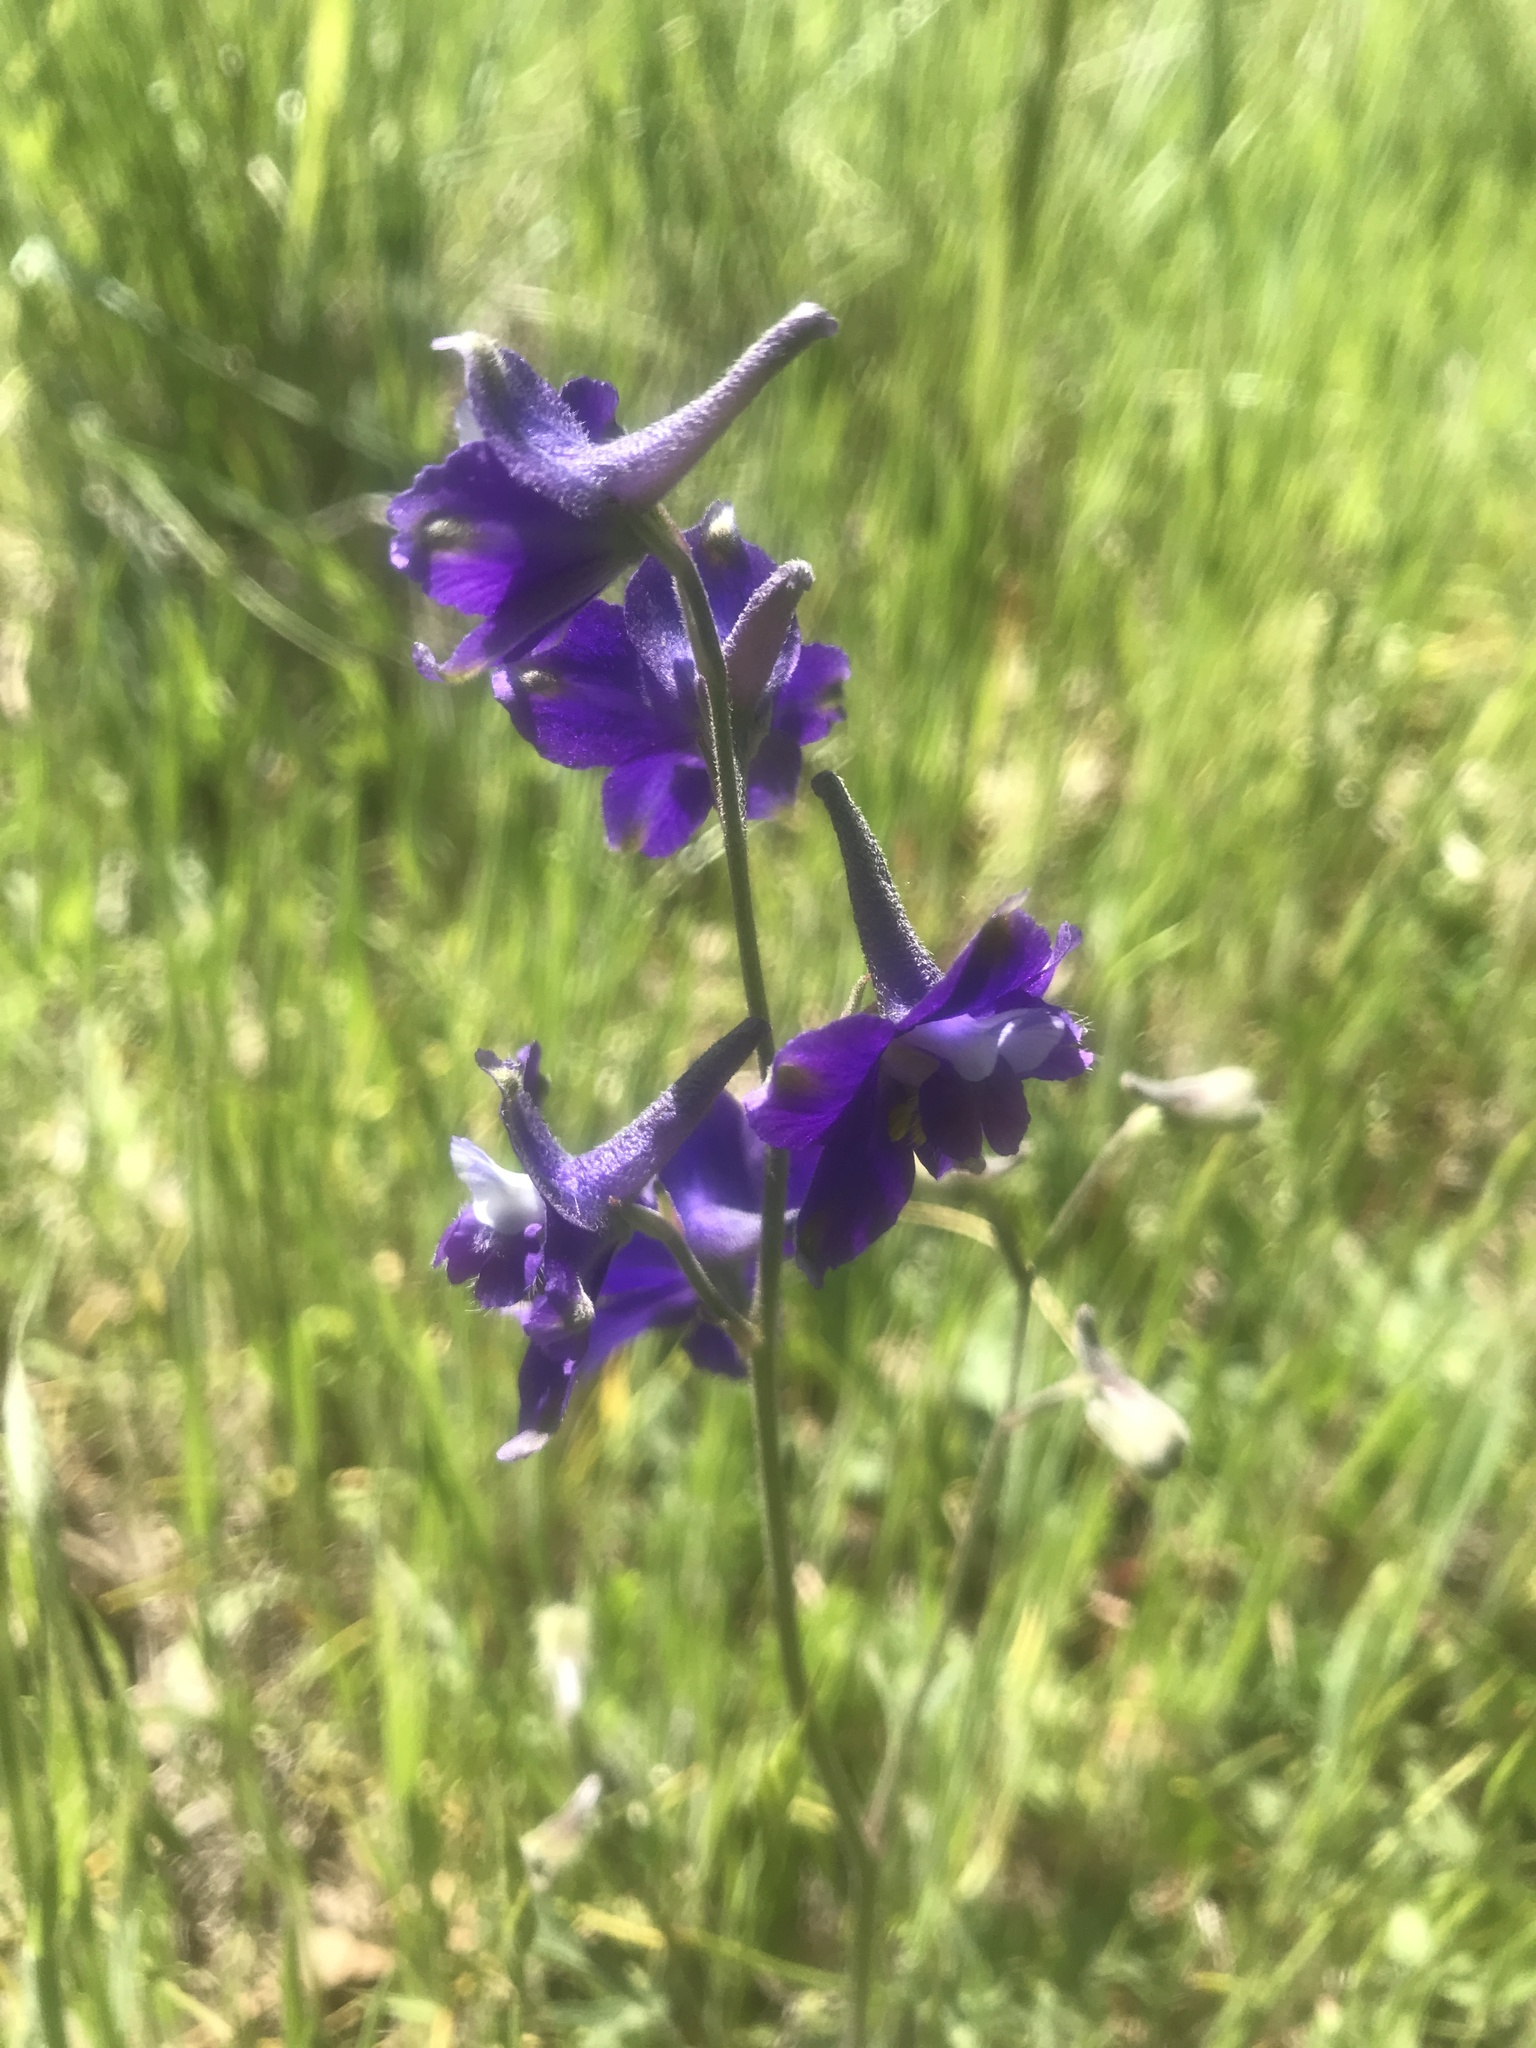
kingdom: Plantae
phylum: Tracheophyta
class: Magnoliopsida
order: Ranunculales
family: Ranunculaceae
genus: Delphinium
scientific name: Delphinium variegatum
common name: Royal larkspur
